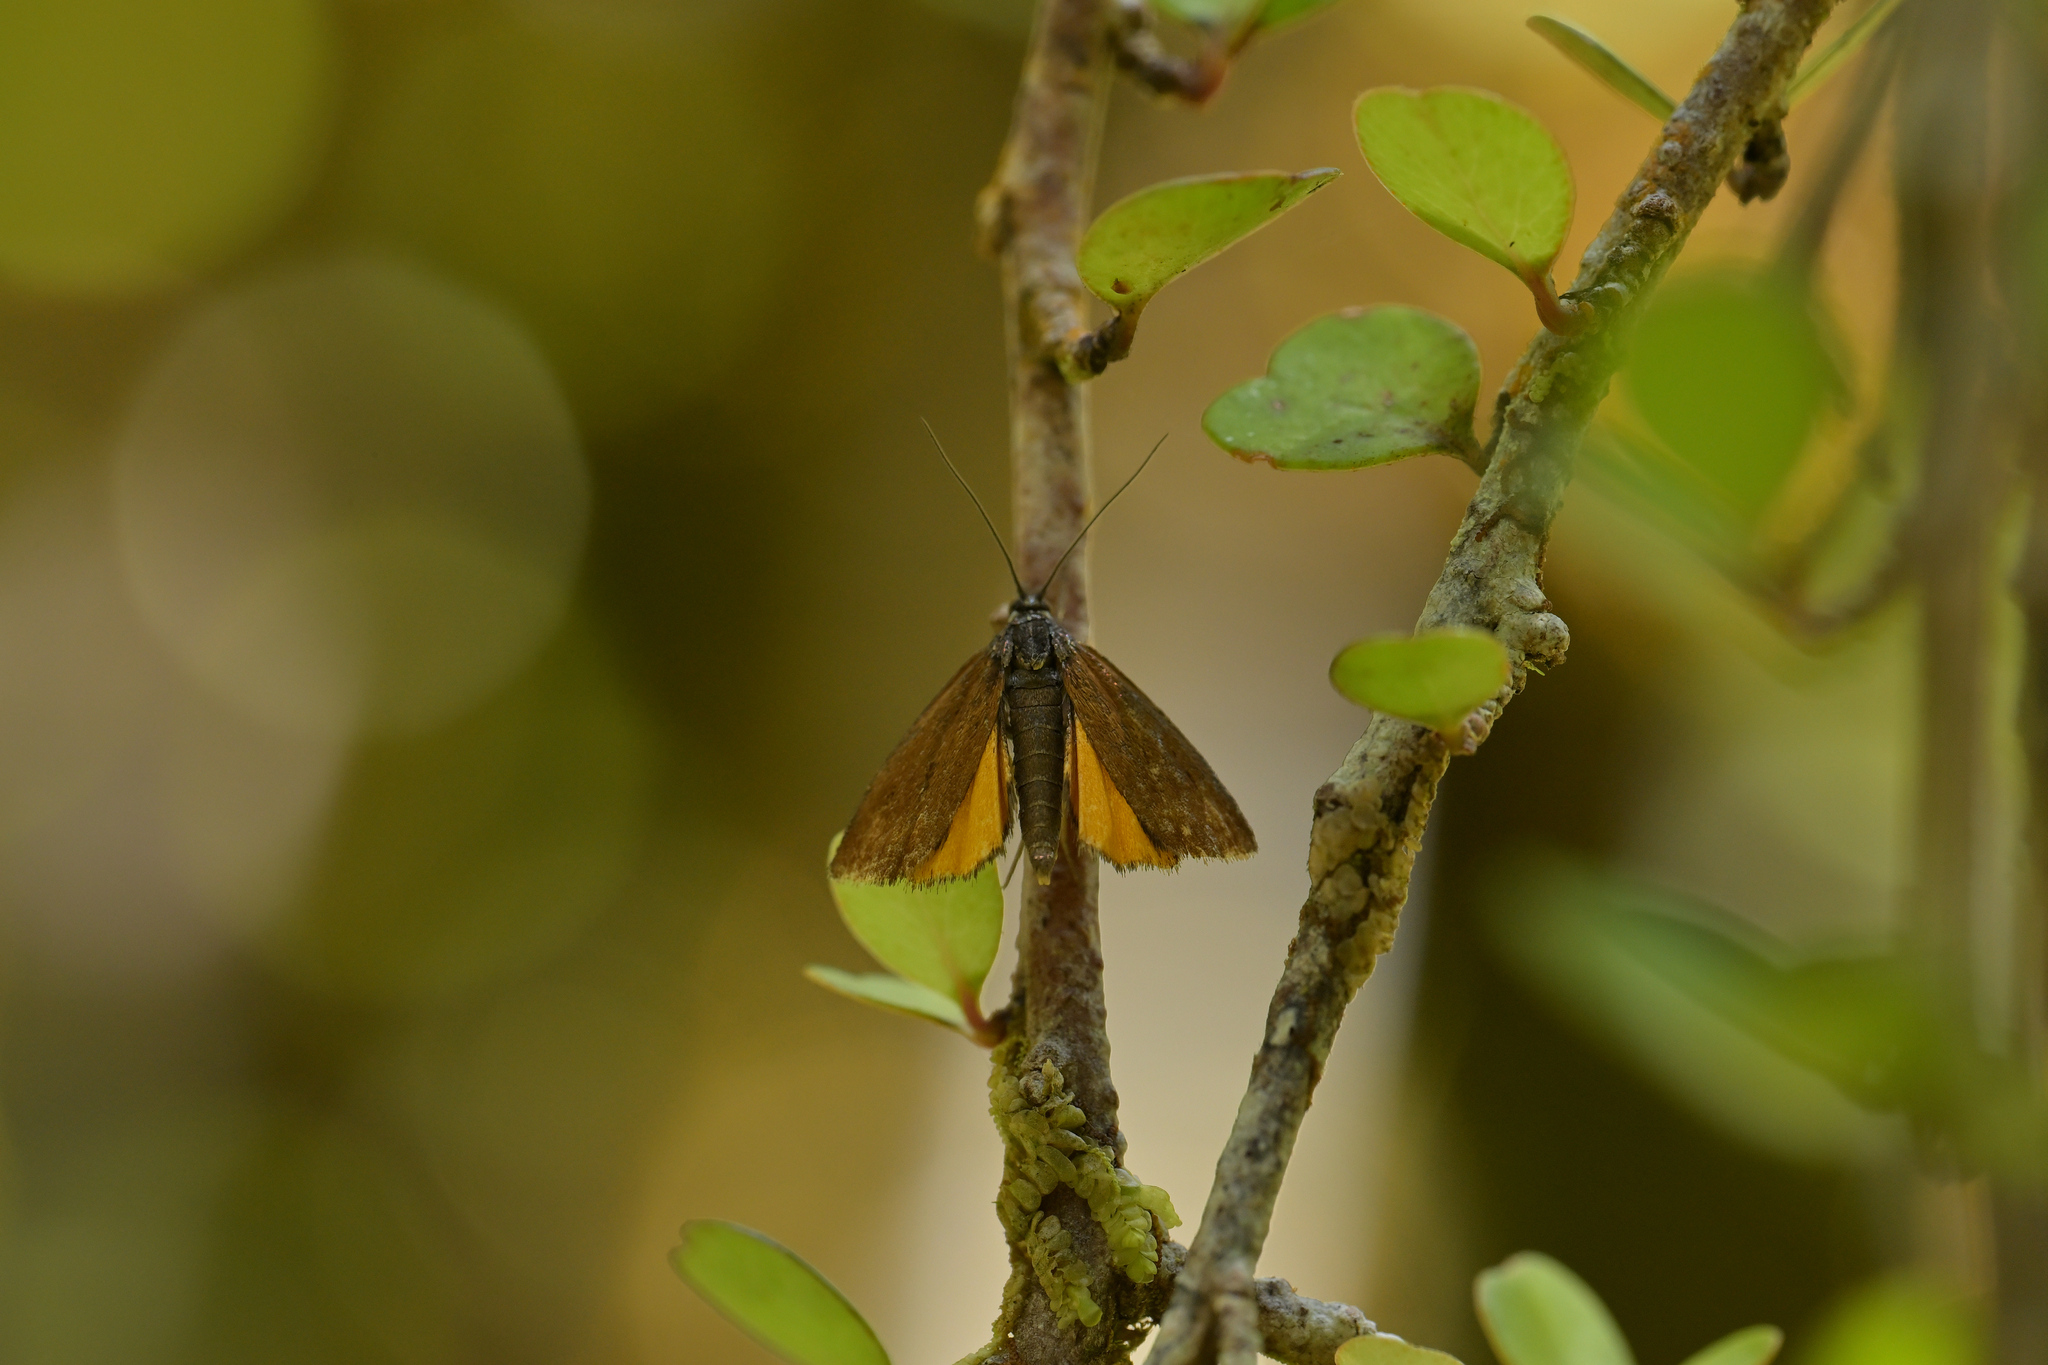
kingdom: Animalia
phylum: Arthropoda
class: Insecta
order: Lepidoptera
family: Crambidae
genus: Orocrambus
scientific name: Orocrambus heliotes
